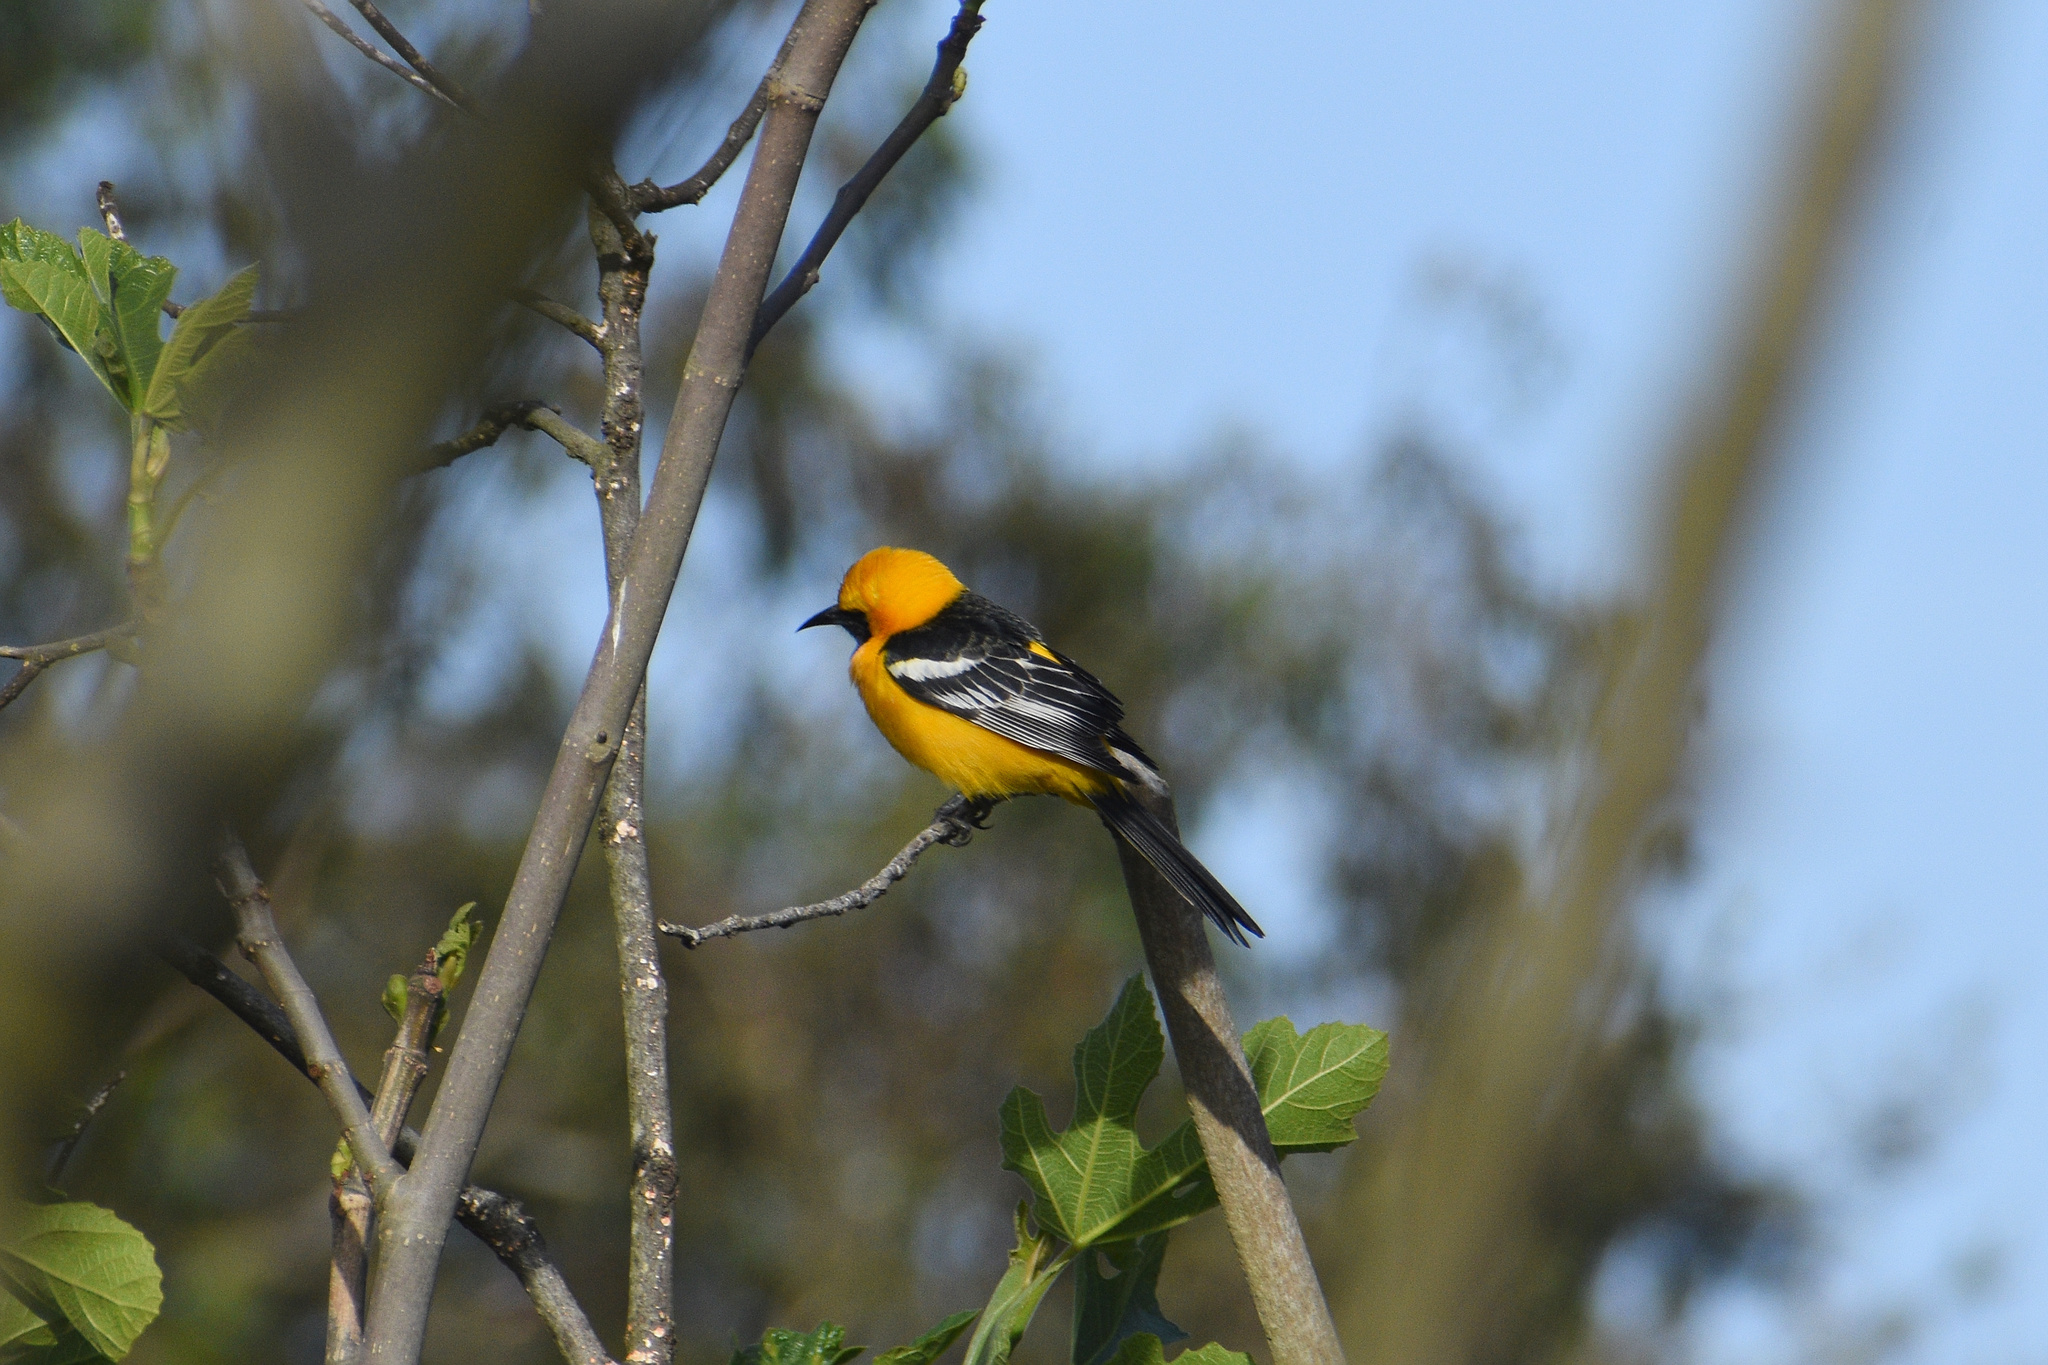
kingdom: Animalia
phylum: Chordata
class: Aves
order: Passeriformes
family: Icteridae
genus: Icterus
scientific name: Icterus cucullatus
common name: Hooded oriole
